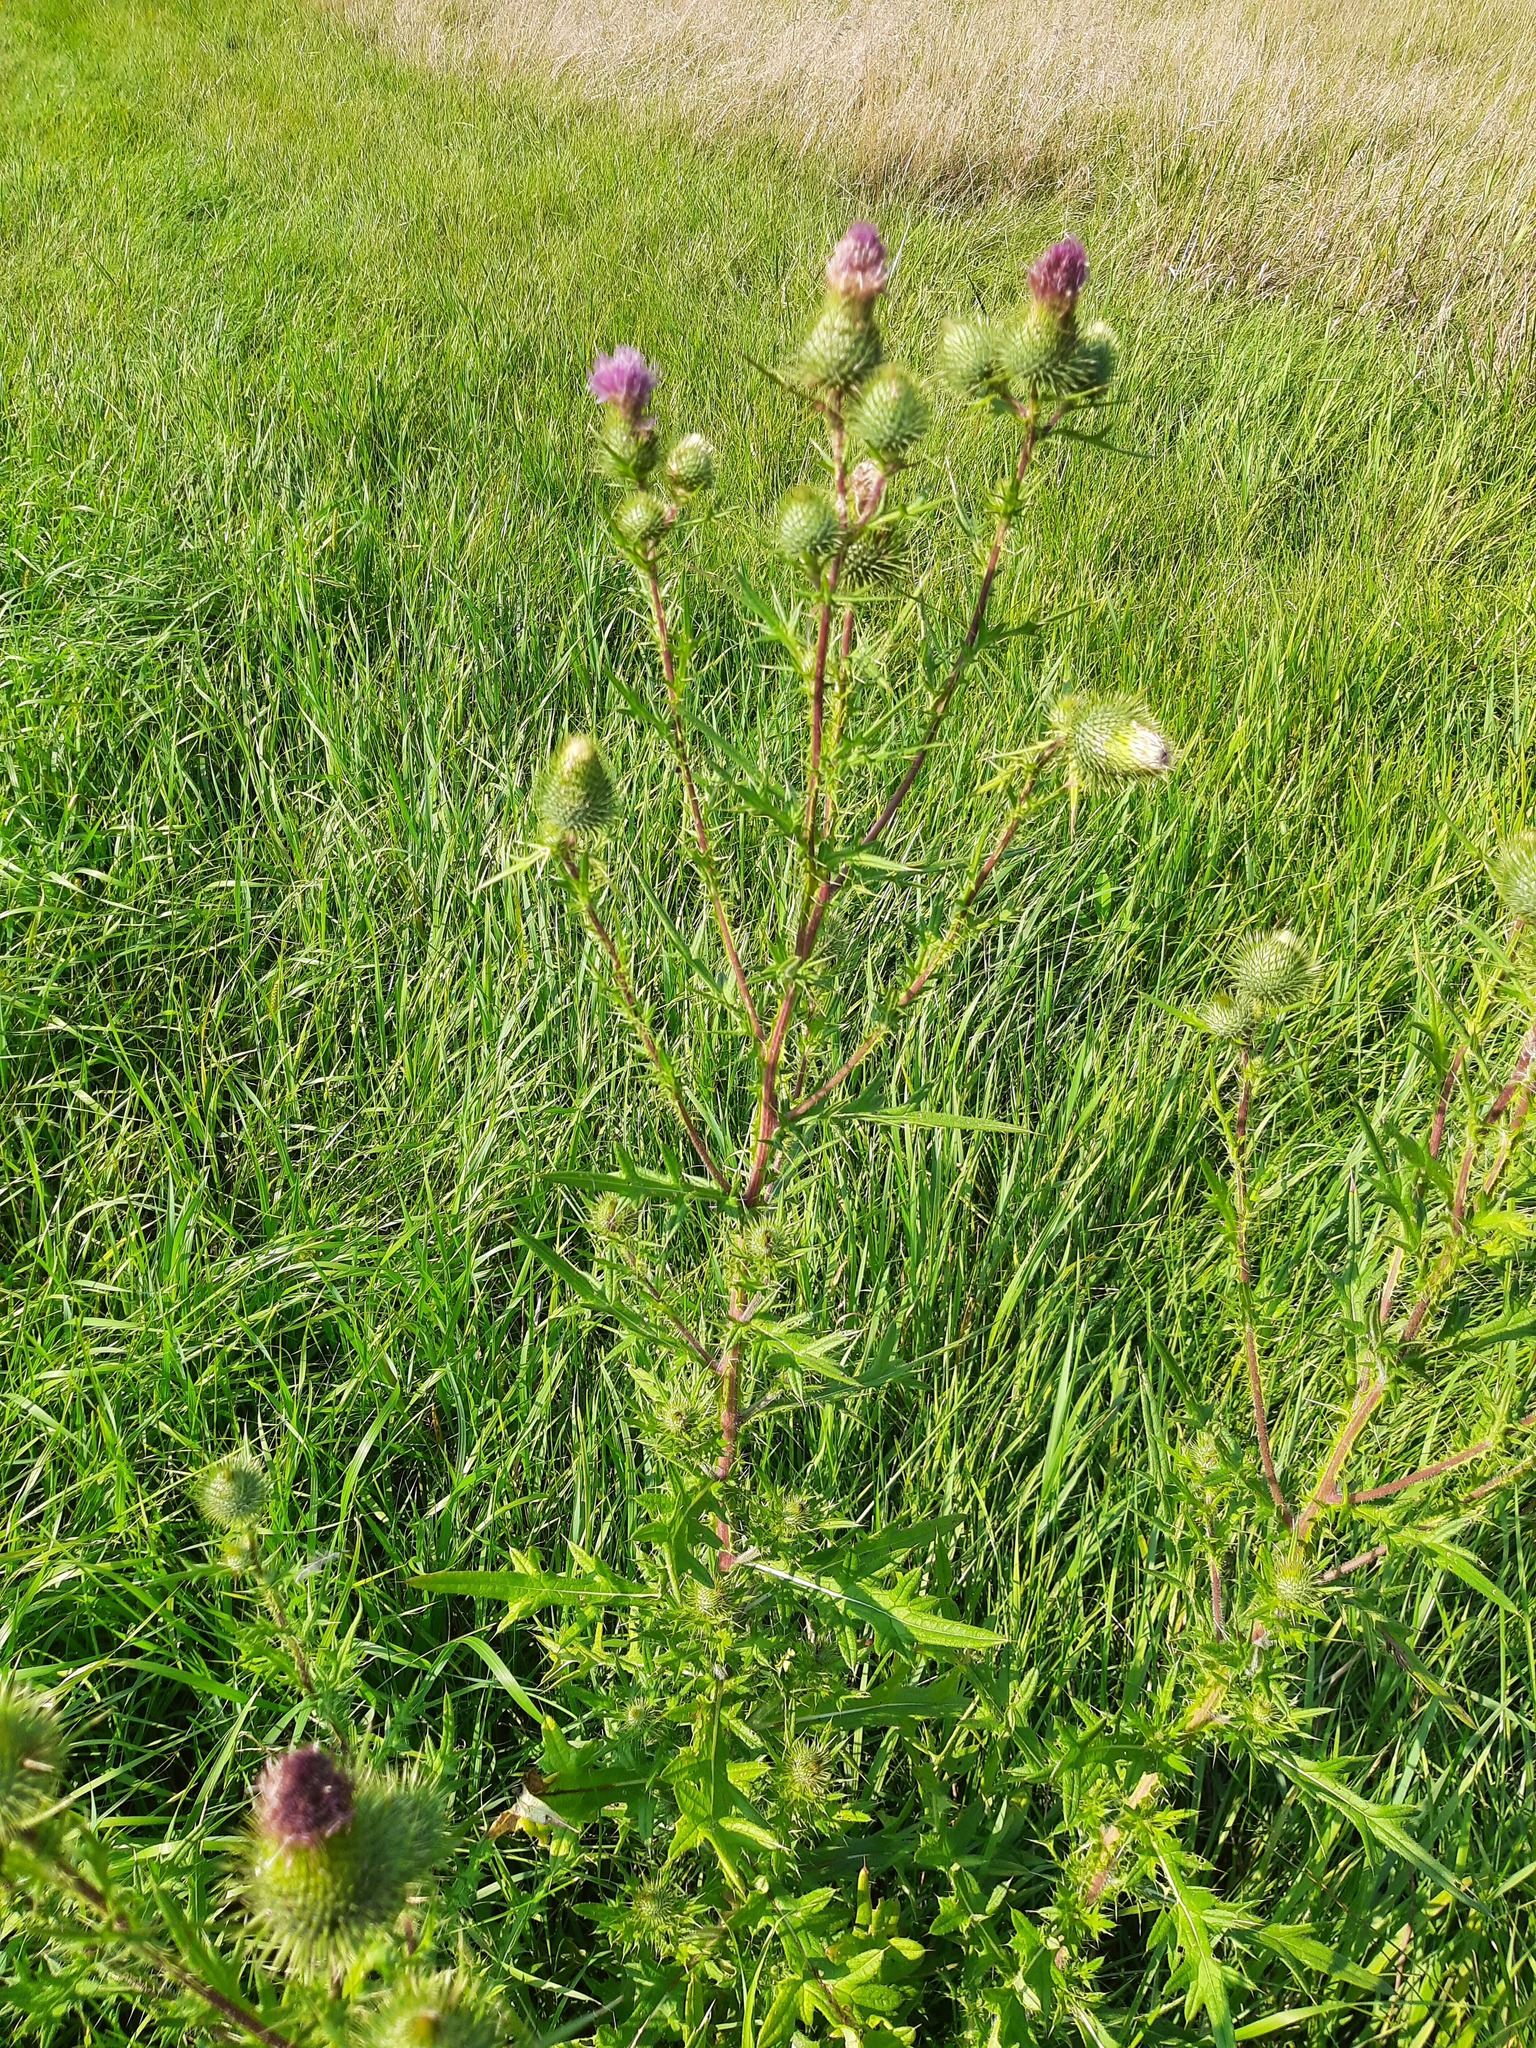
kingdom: Plantae
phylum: Tracheophyta
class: Magnoliopsida
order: Asterales
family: Asteraceae
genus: Cirsium
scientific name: Cirsium vulgare
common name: Bull thistle
